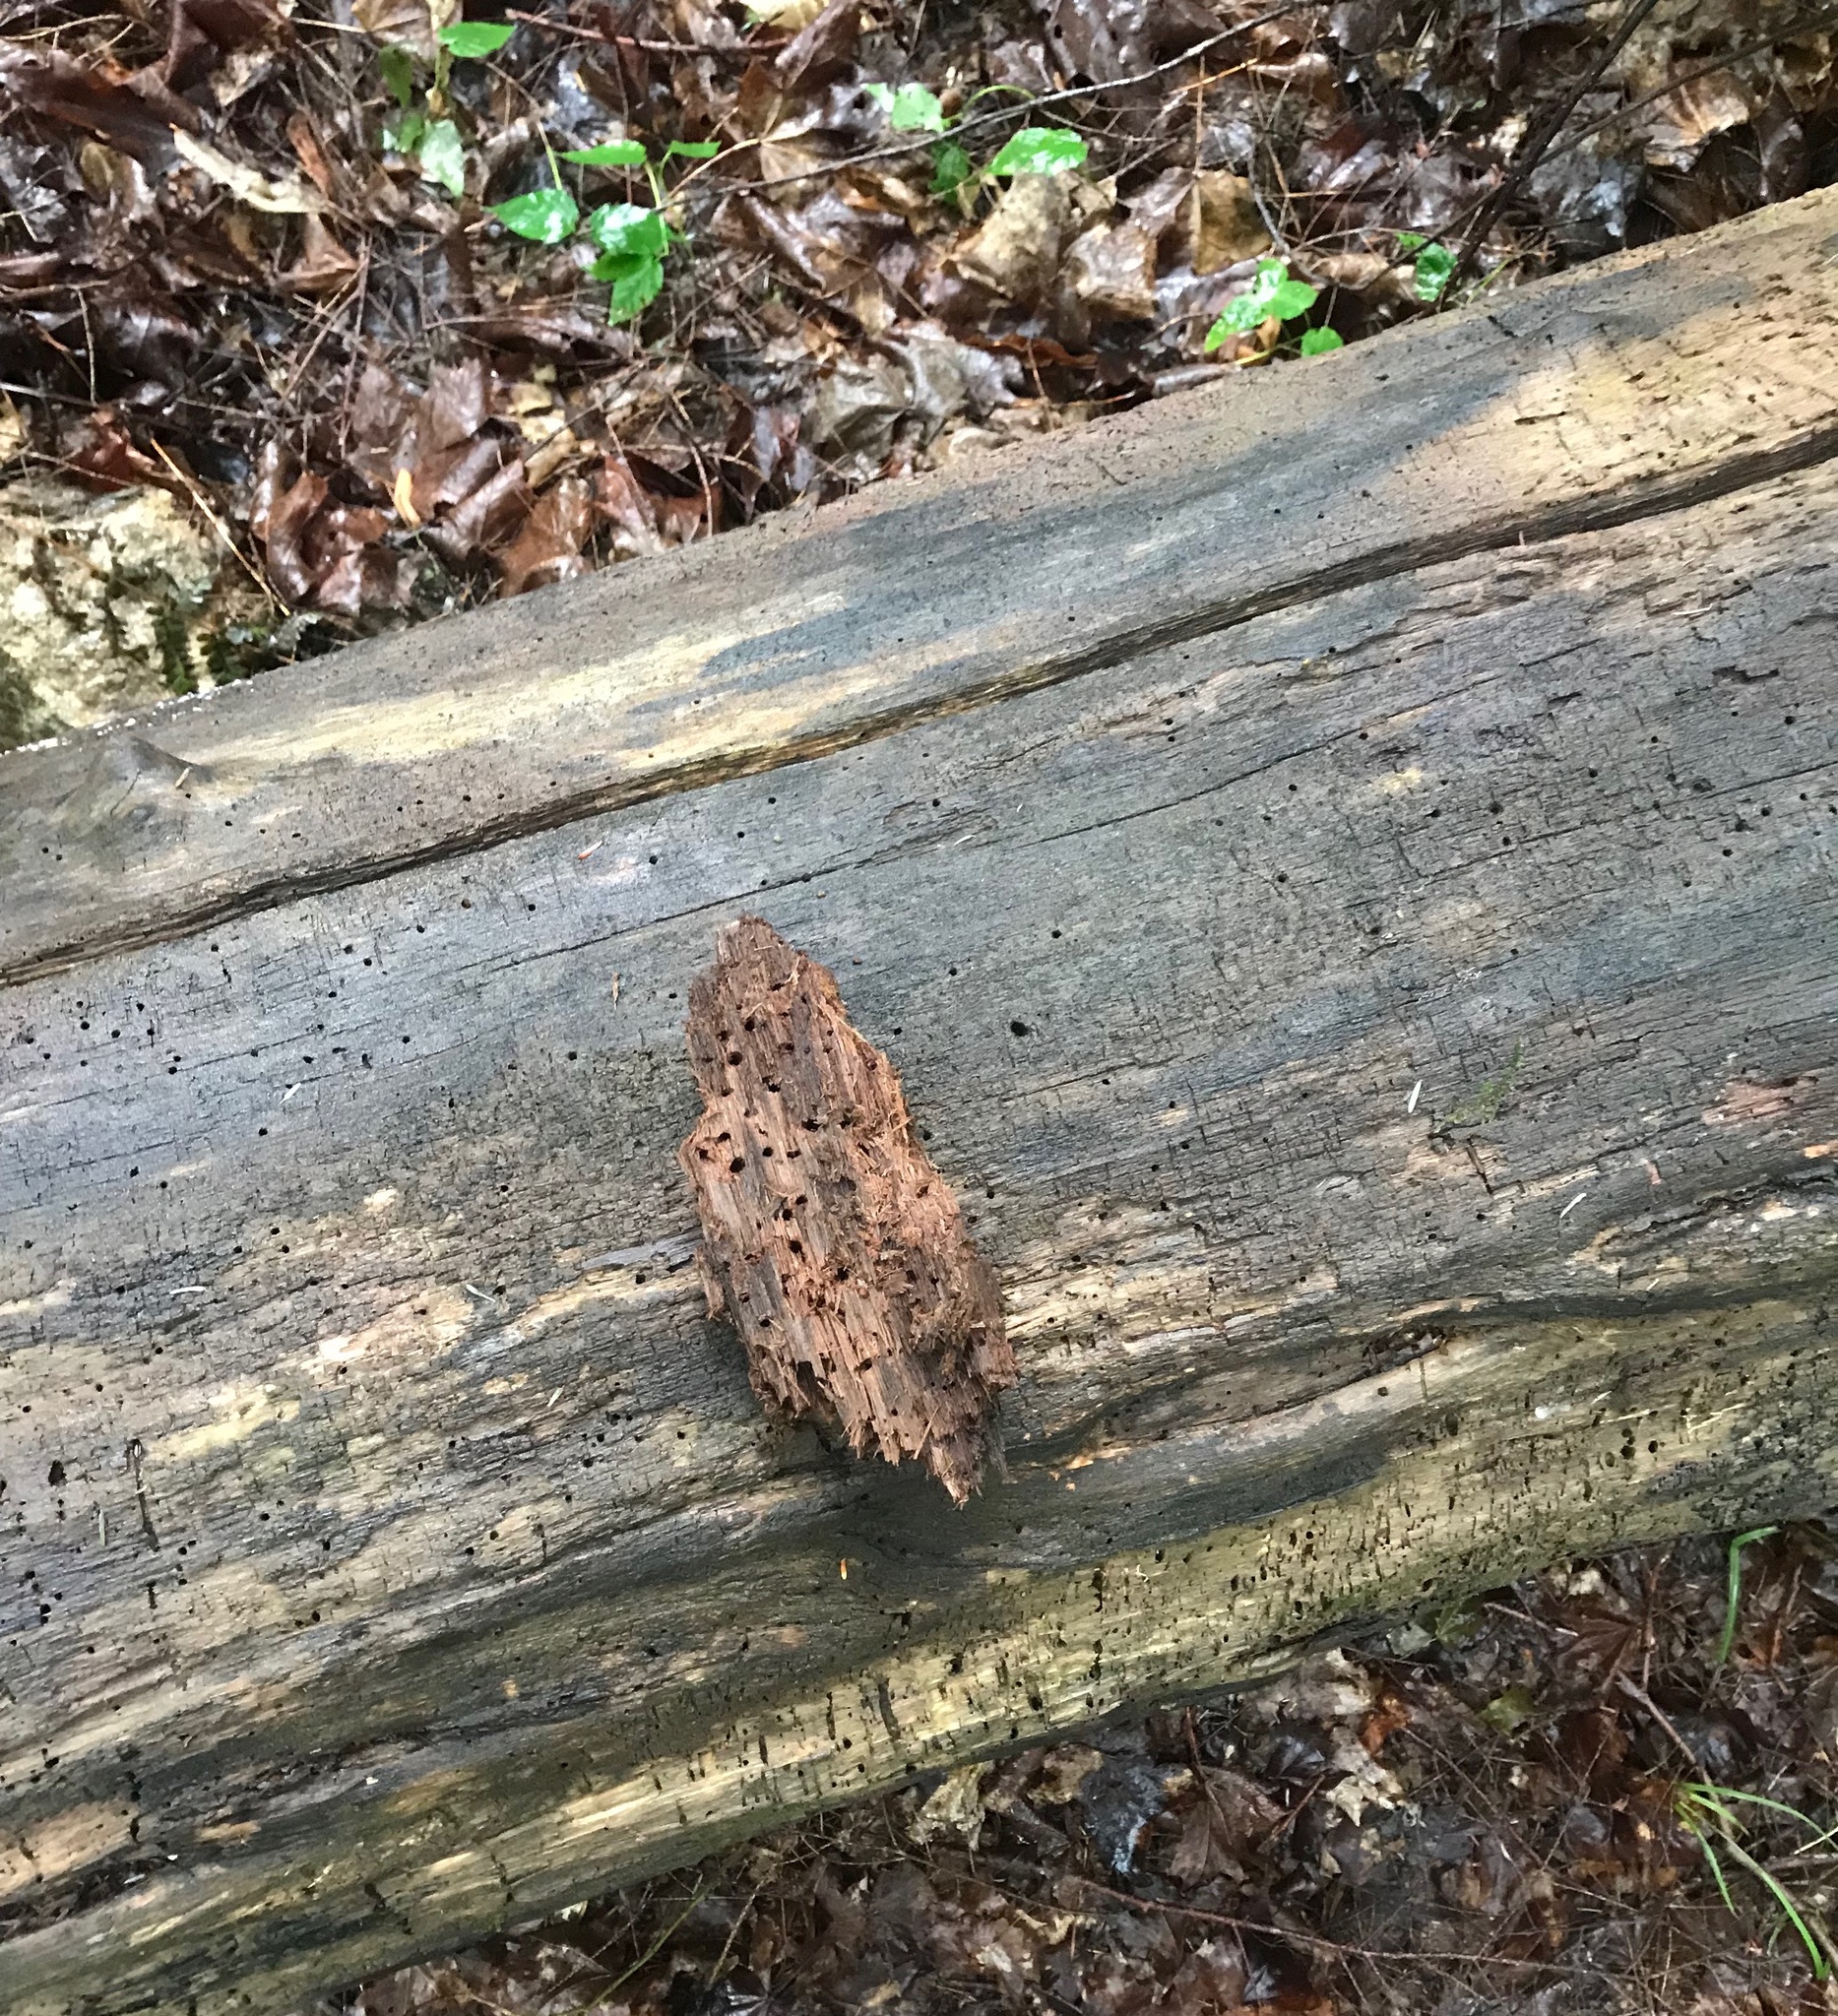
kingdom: Plantae
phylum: Tracheophyta
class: Magnoliopsida
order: Fagales
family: Juglandaceae
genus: Juglans
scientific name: Juglans cinerea
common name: Butternut
